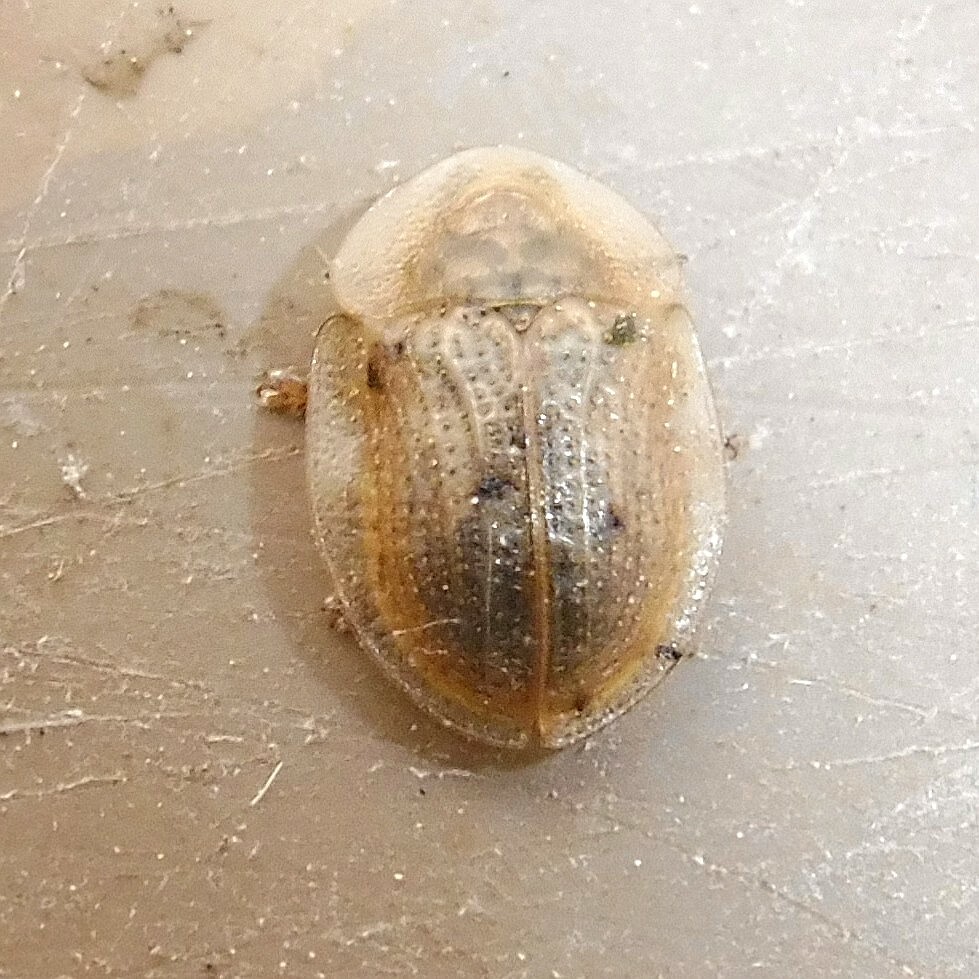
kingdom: Animalia
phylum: Arthropoda
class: Insecta
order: Coleoptera
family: Chrysomelidae
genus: Cassida
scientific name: Cassida flaveola
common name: Pale tortoise beetle
